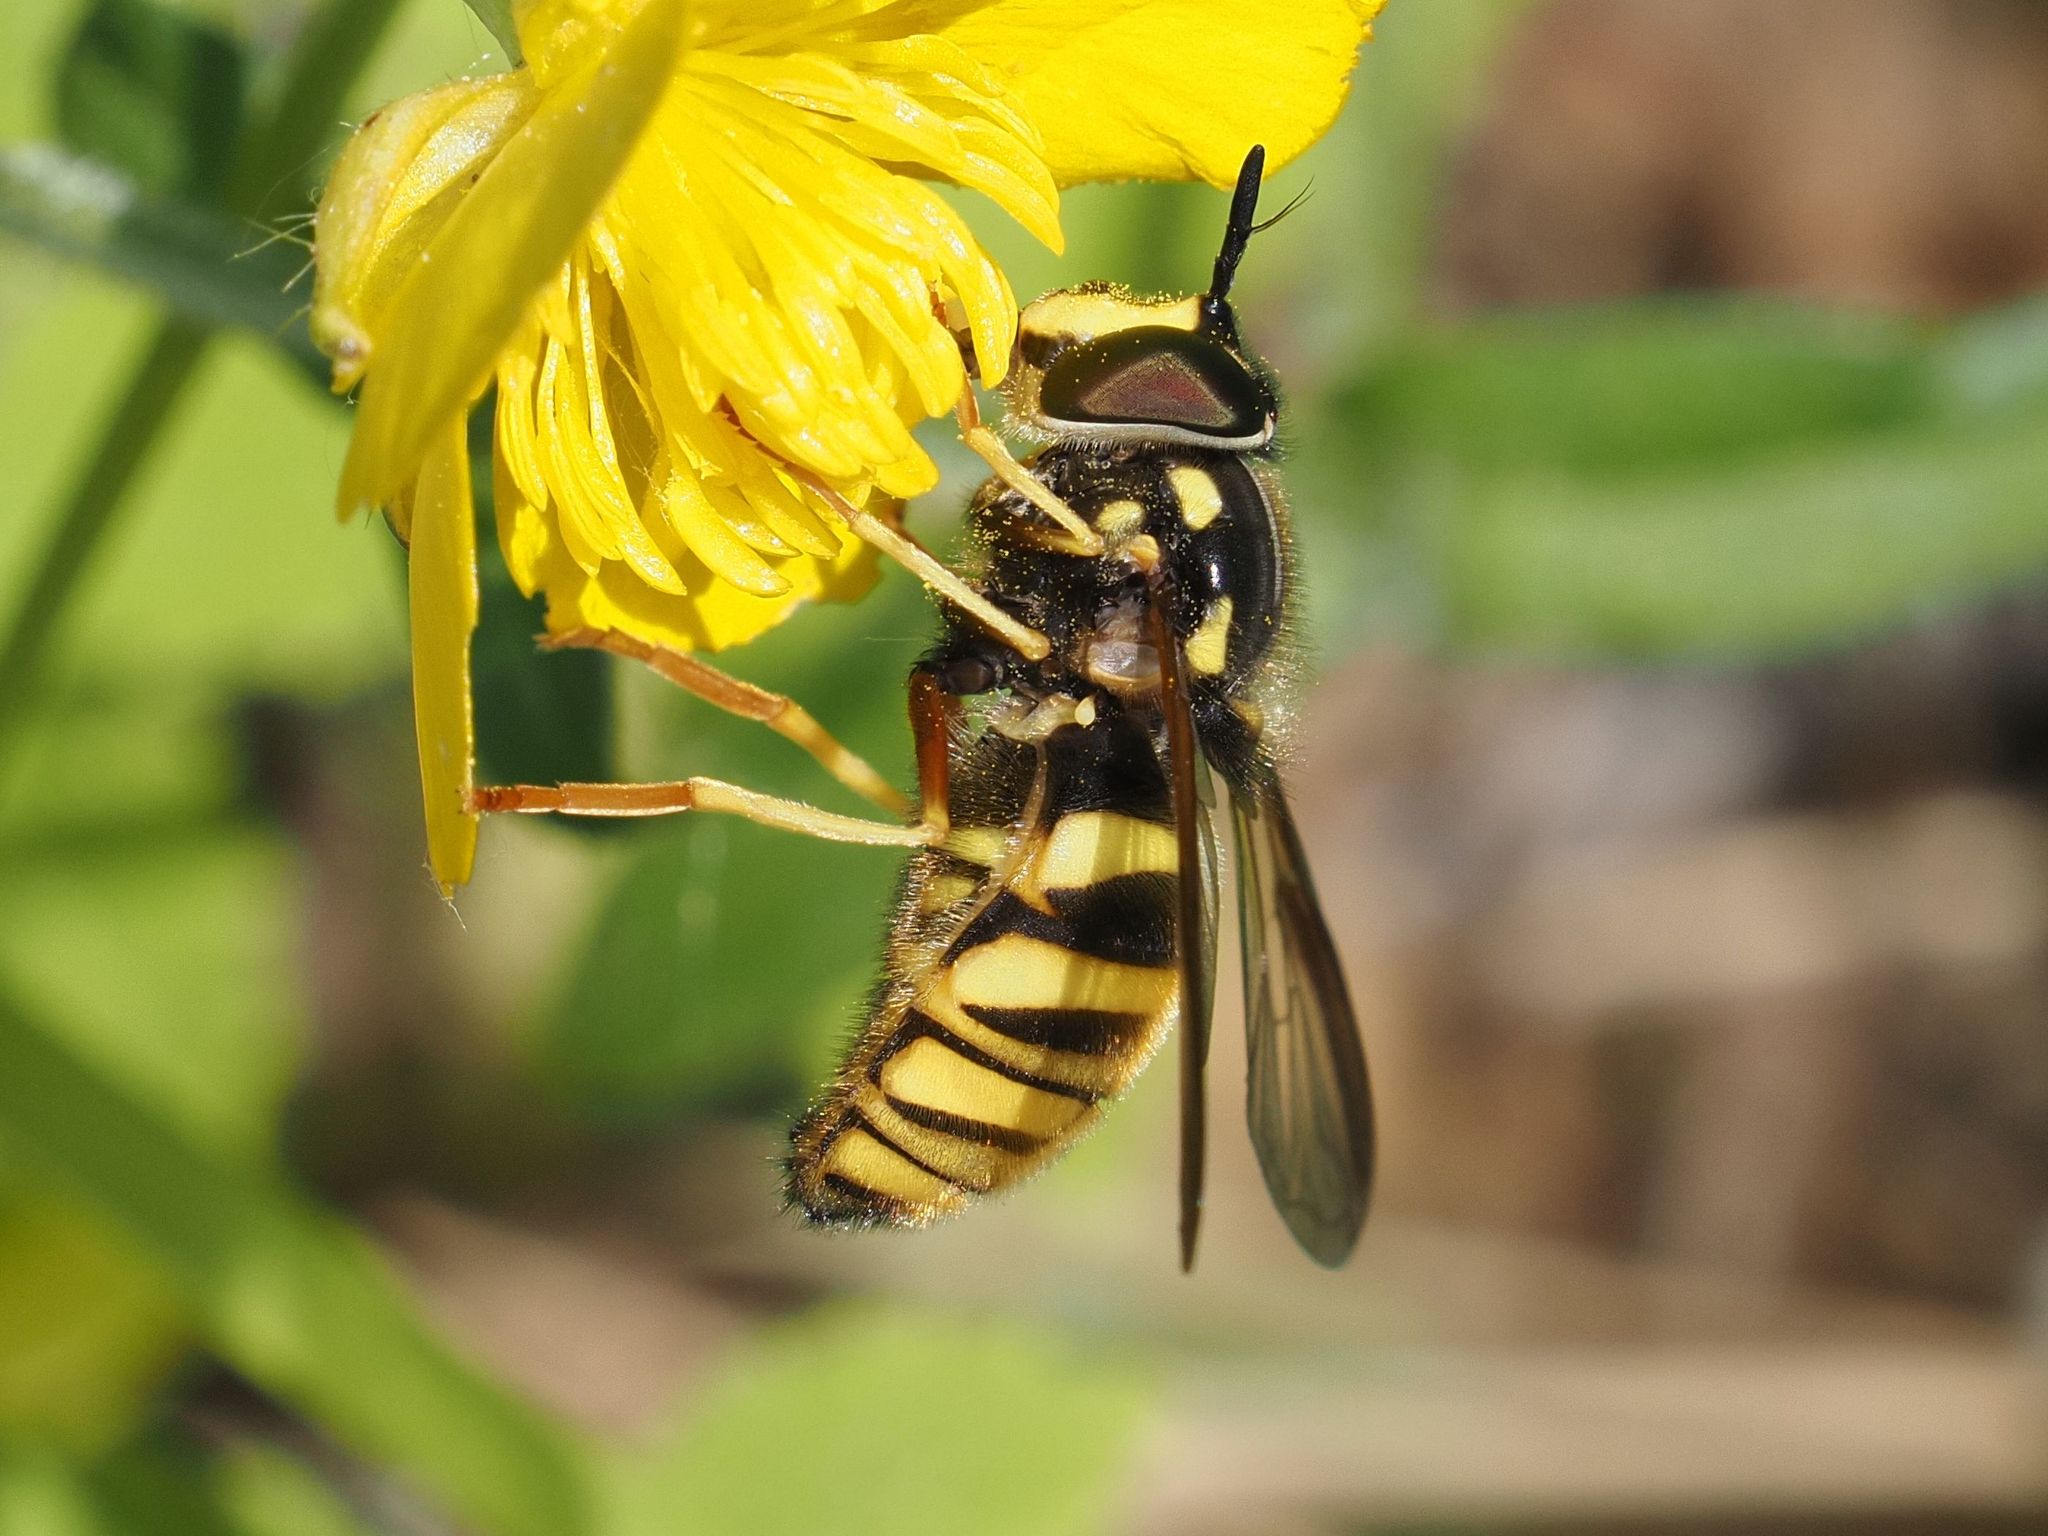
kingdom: Animalia
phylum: Arthropoda
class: Insecta
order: Diptera
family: Syrphidae
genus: Chrysotoxum
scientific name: Chrysotoxum fasciolatum
